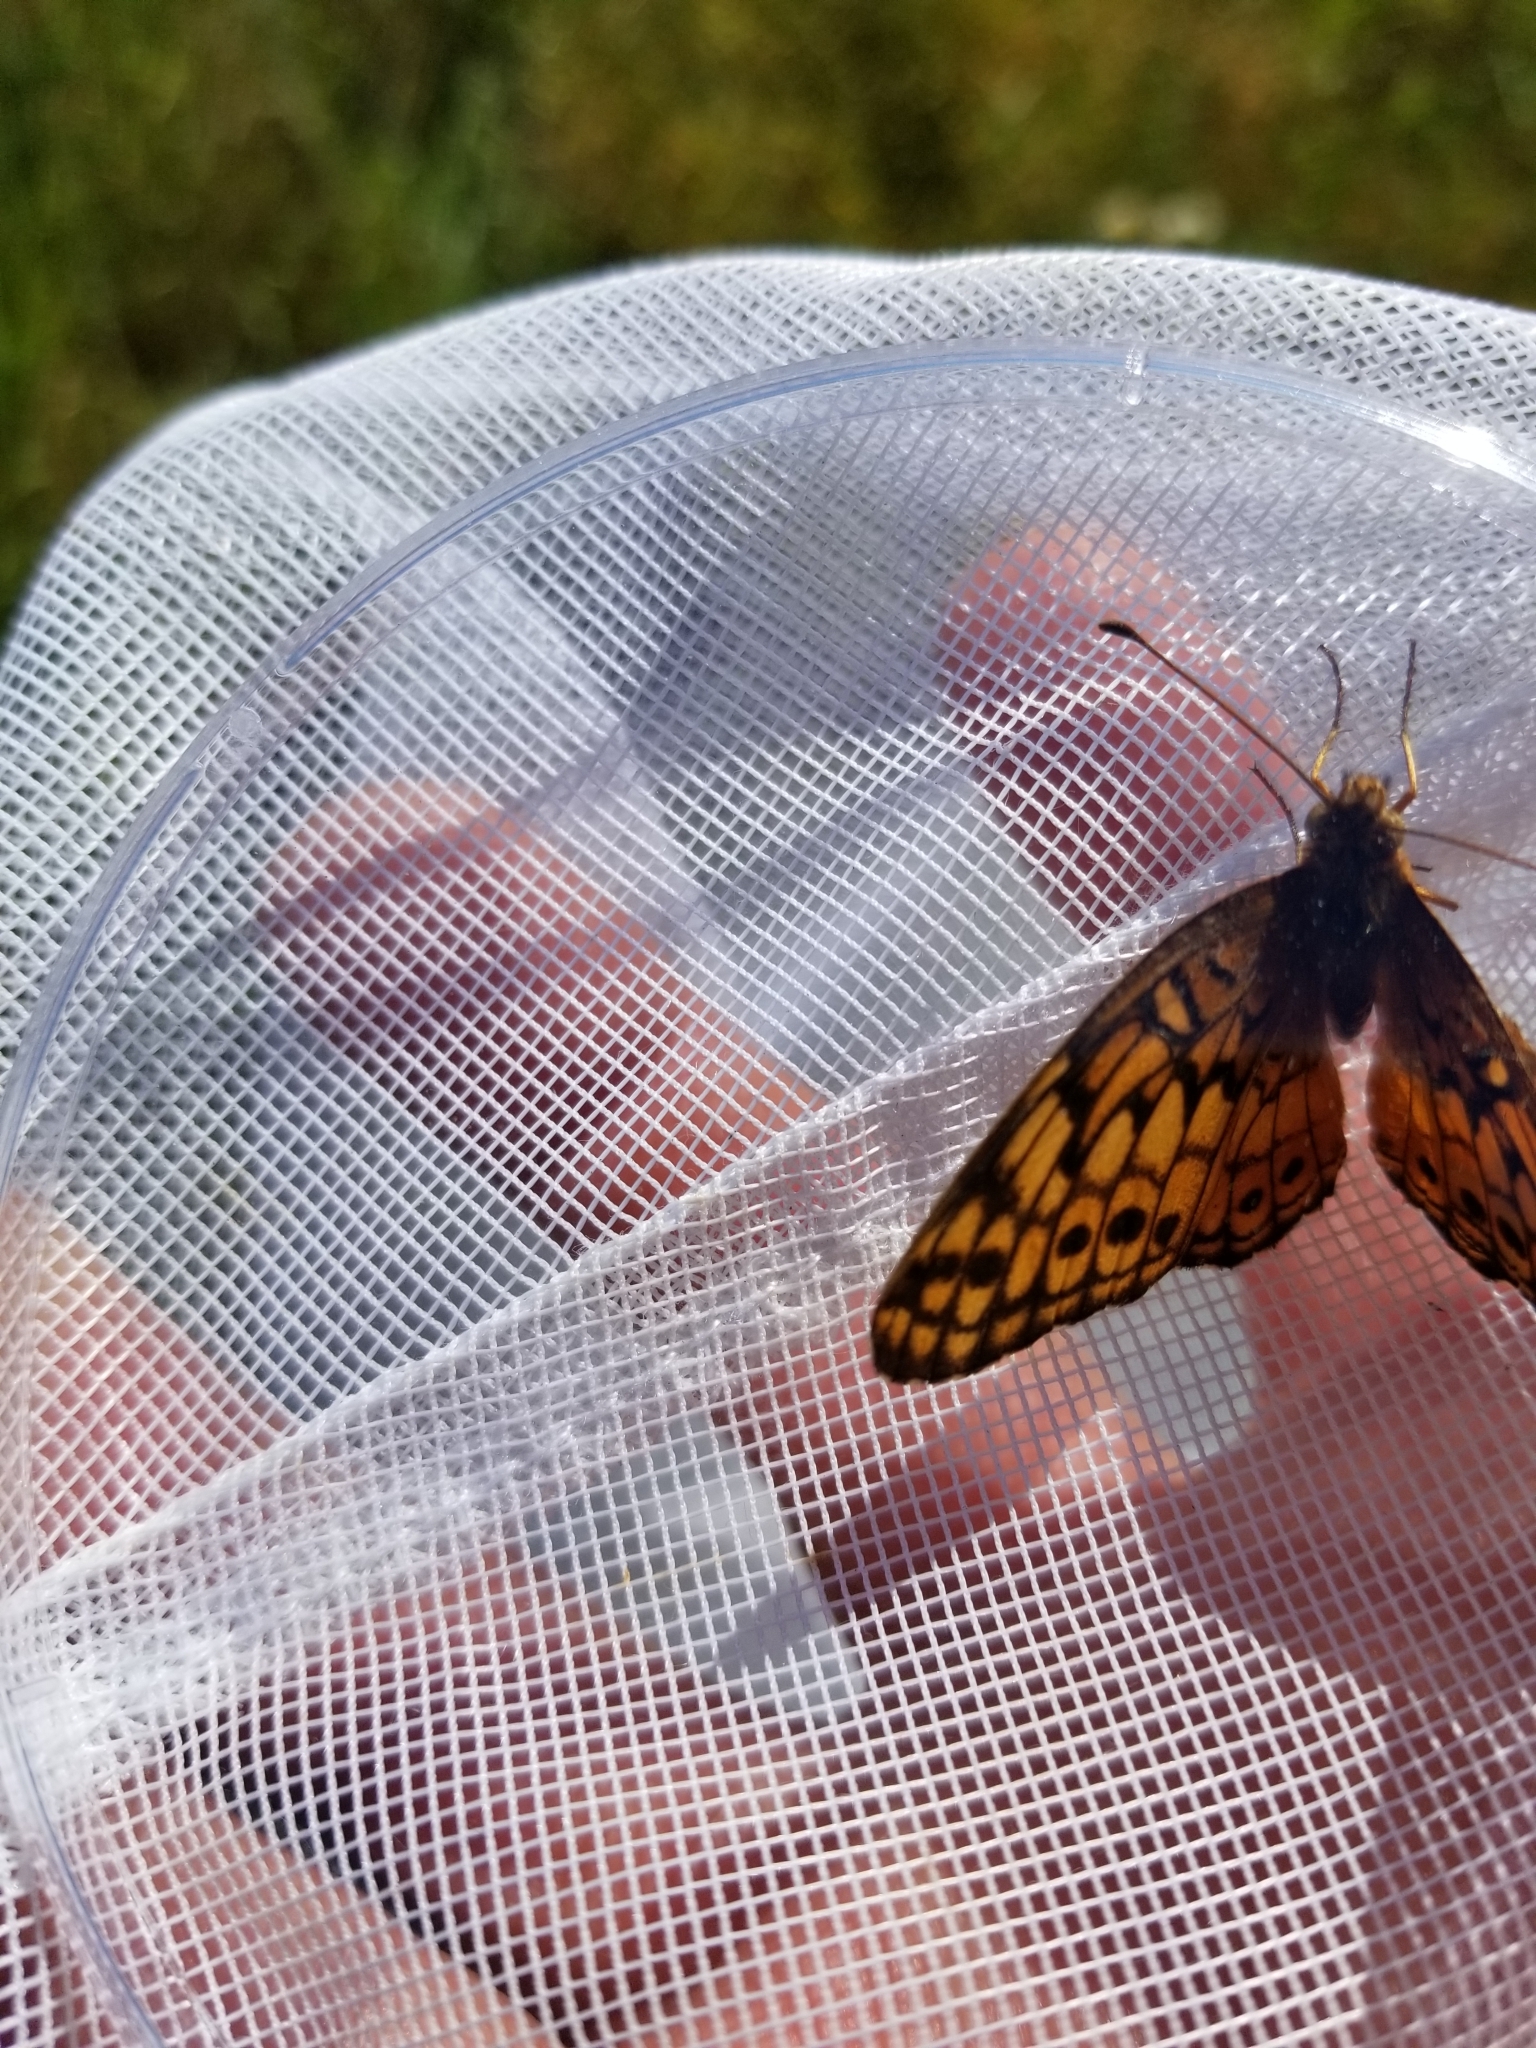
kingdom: Animalia
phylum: Arthropoda
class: Insecta
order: Lepidoptera
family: Nymphalidae
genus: Euptoieta
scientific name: Euptoieta claudia
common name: Variegated fritillary
